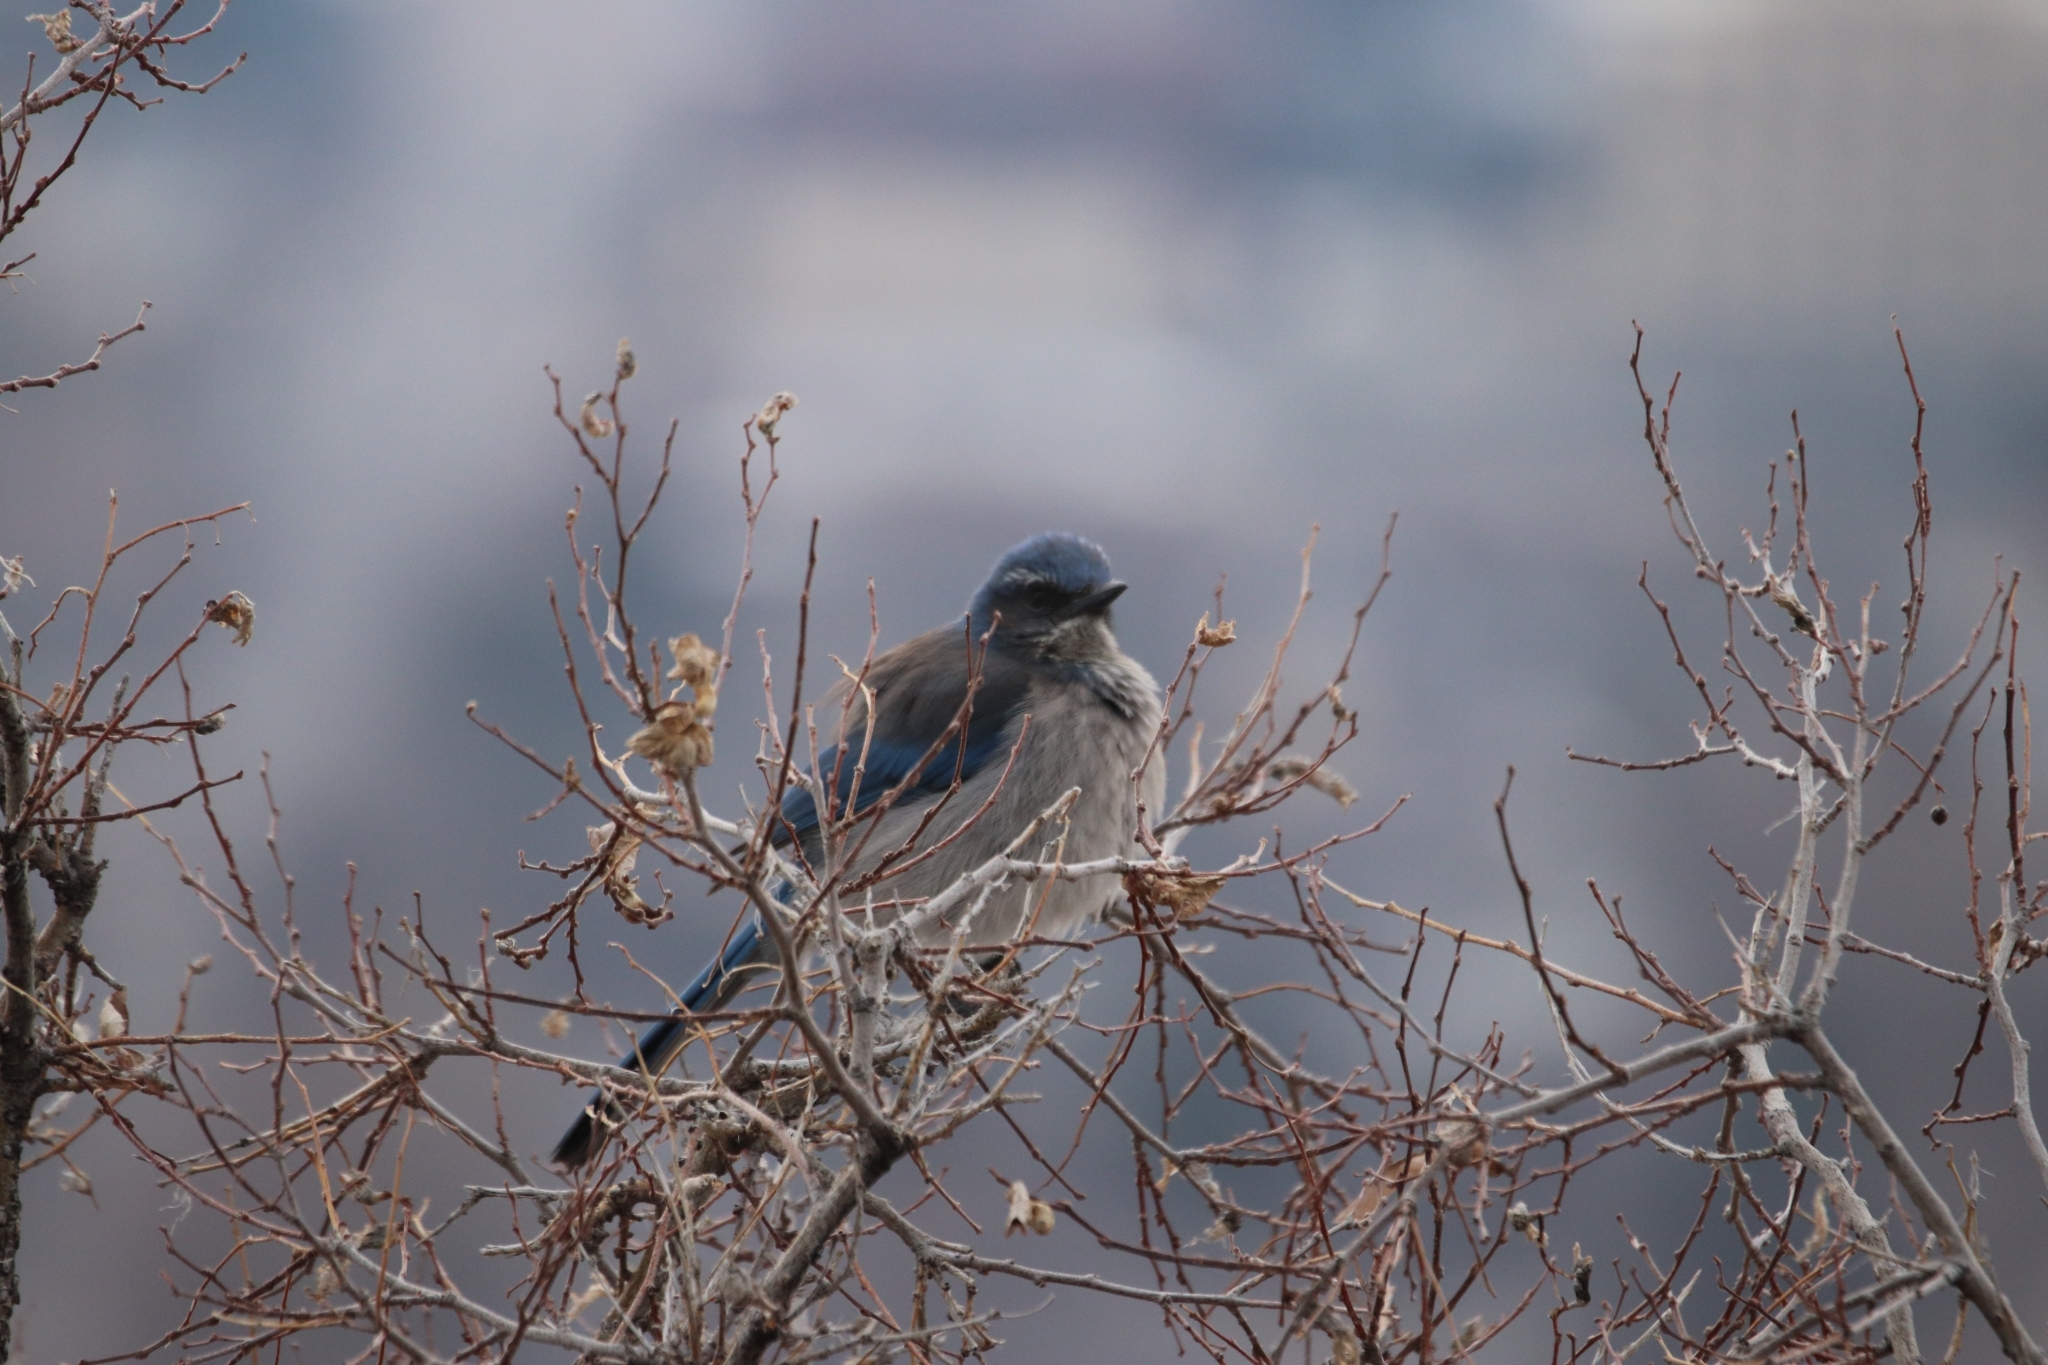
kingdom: Animalia
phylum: Chordata
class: Aves
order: Passeriformes
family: Corvidae
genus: Aphelocoma
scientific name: Aphelocoma woodhouseii
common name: Woodhouse's scrub-jay
